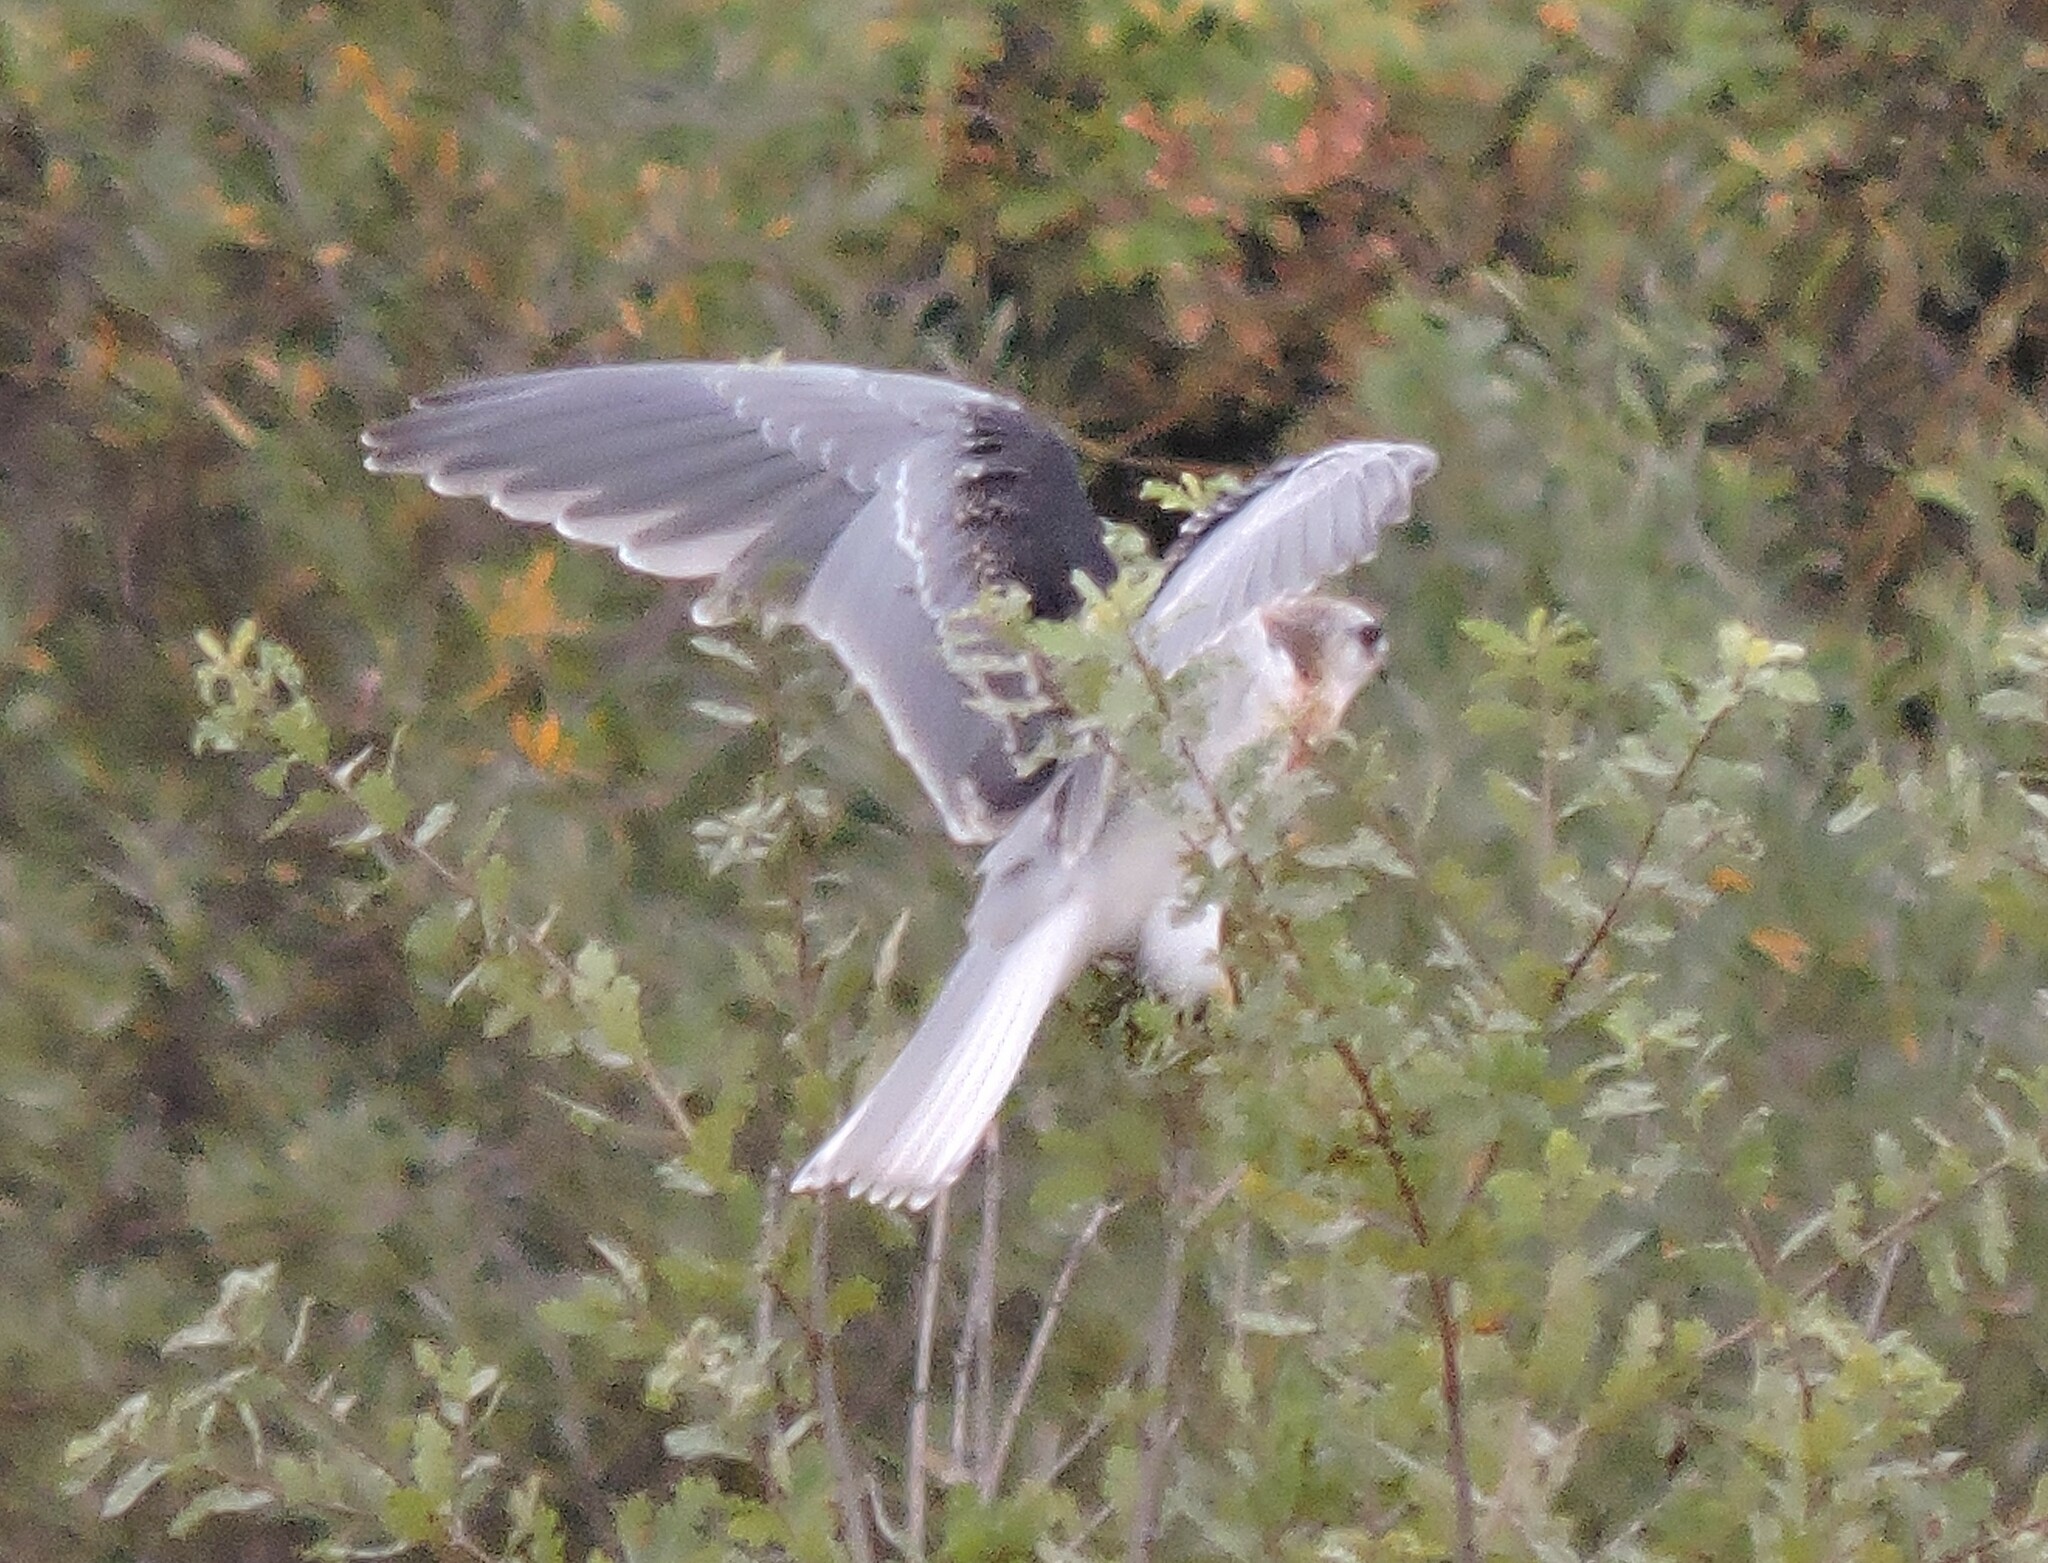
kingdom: Animalia
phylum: Chordata
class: Aves
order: Accipitriformes
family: Accipitridae
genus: Elanus
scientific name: Elanus leucurus
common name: White-tailed kite
